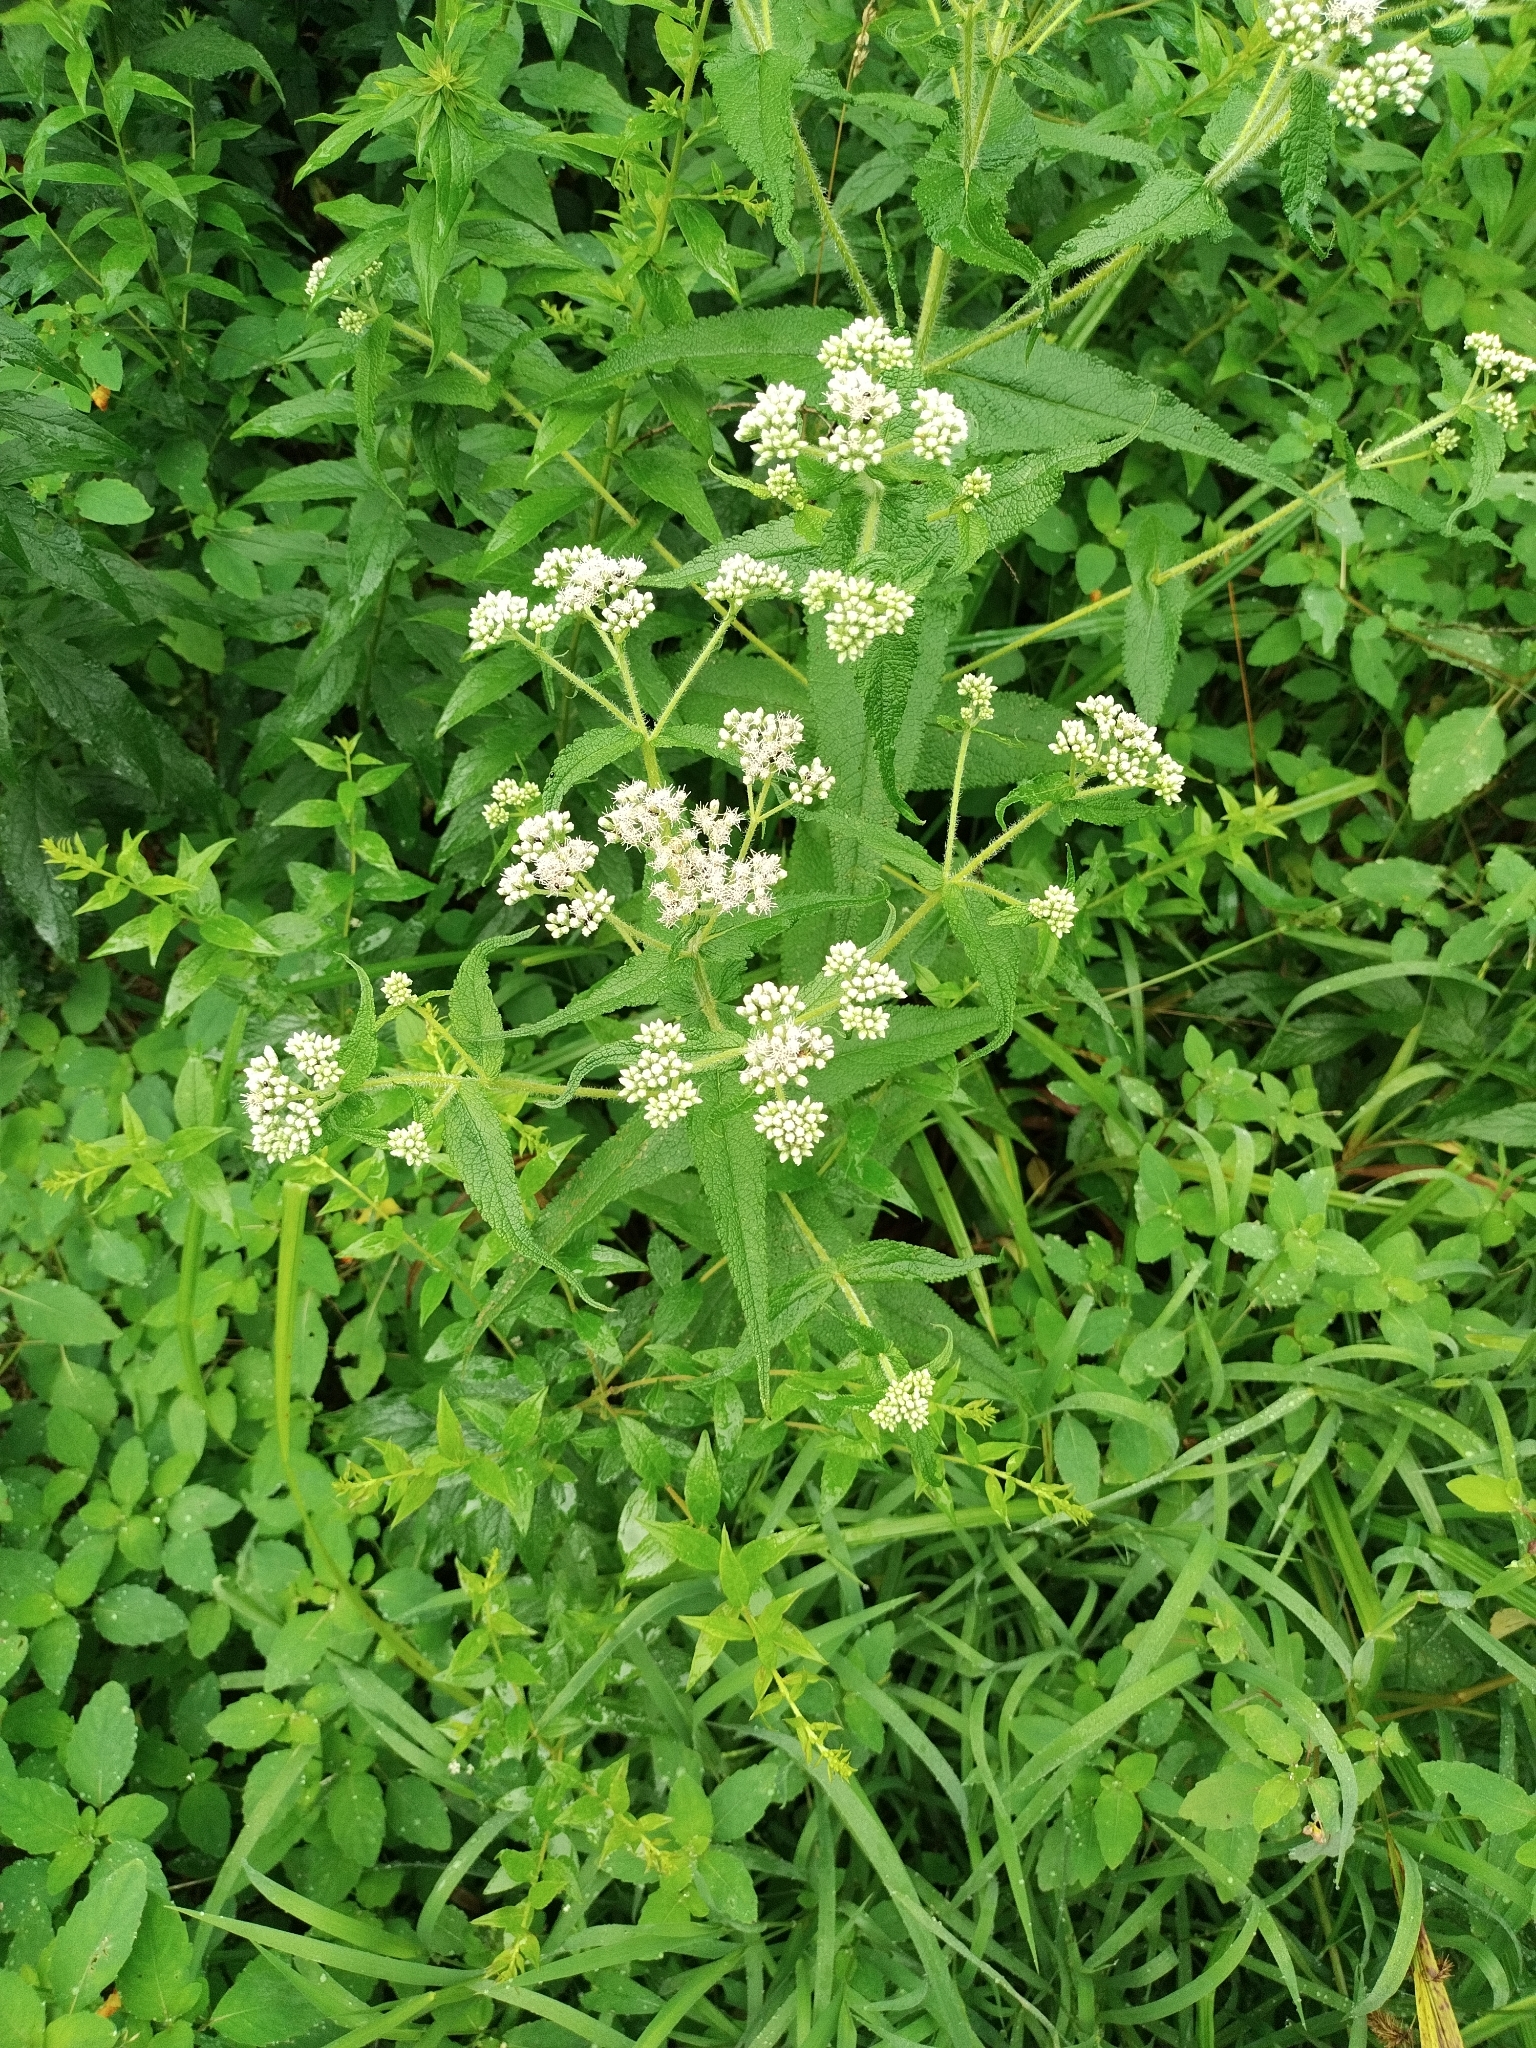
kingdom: Plantae
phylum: Tracheophyta
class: Magnoliopsida
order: Asterales
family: Asteraceae
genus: Eupatorium
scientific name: Eupatorium perfoliatum
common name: Boneset
